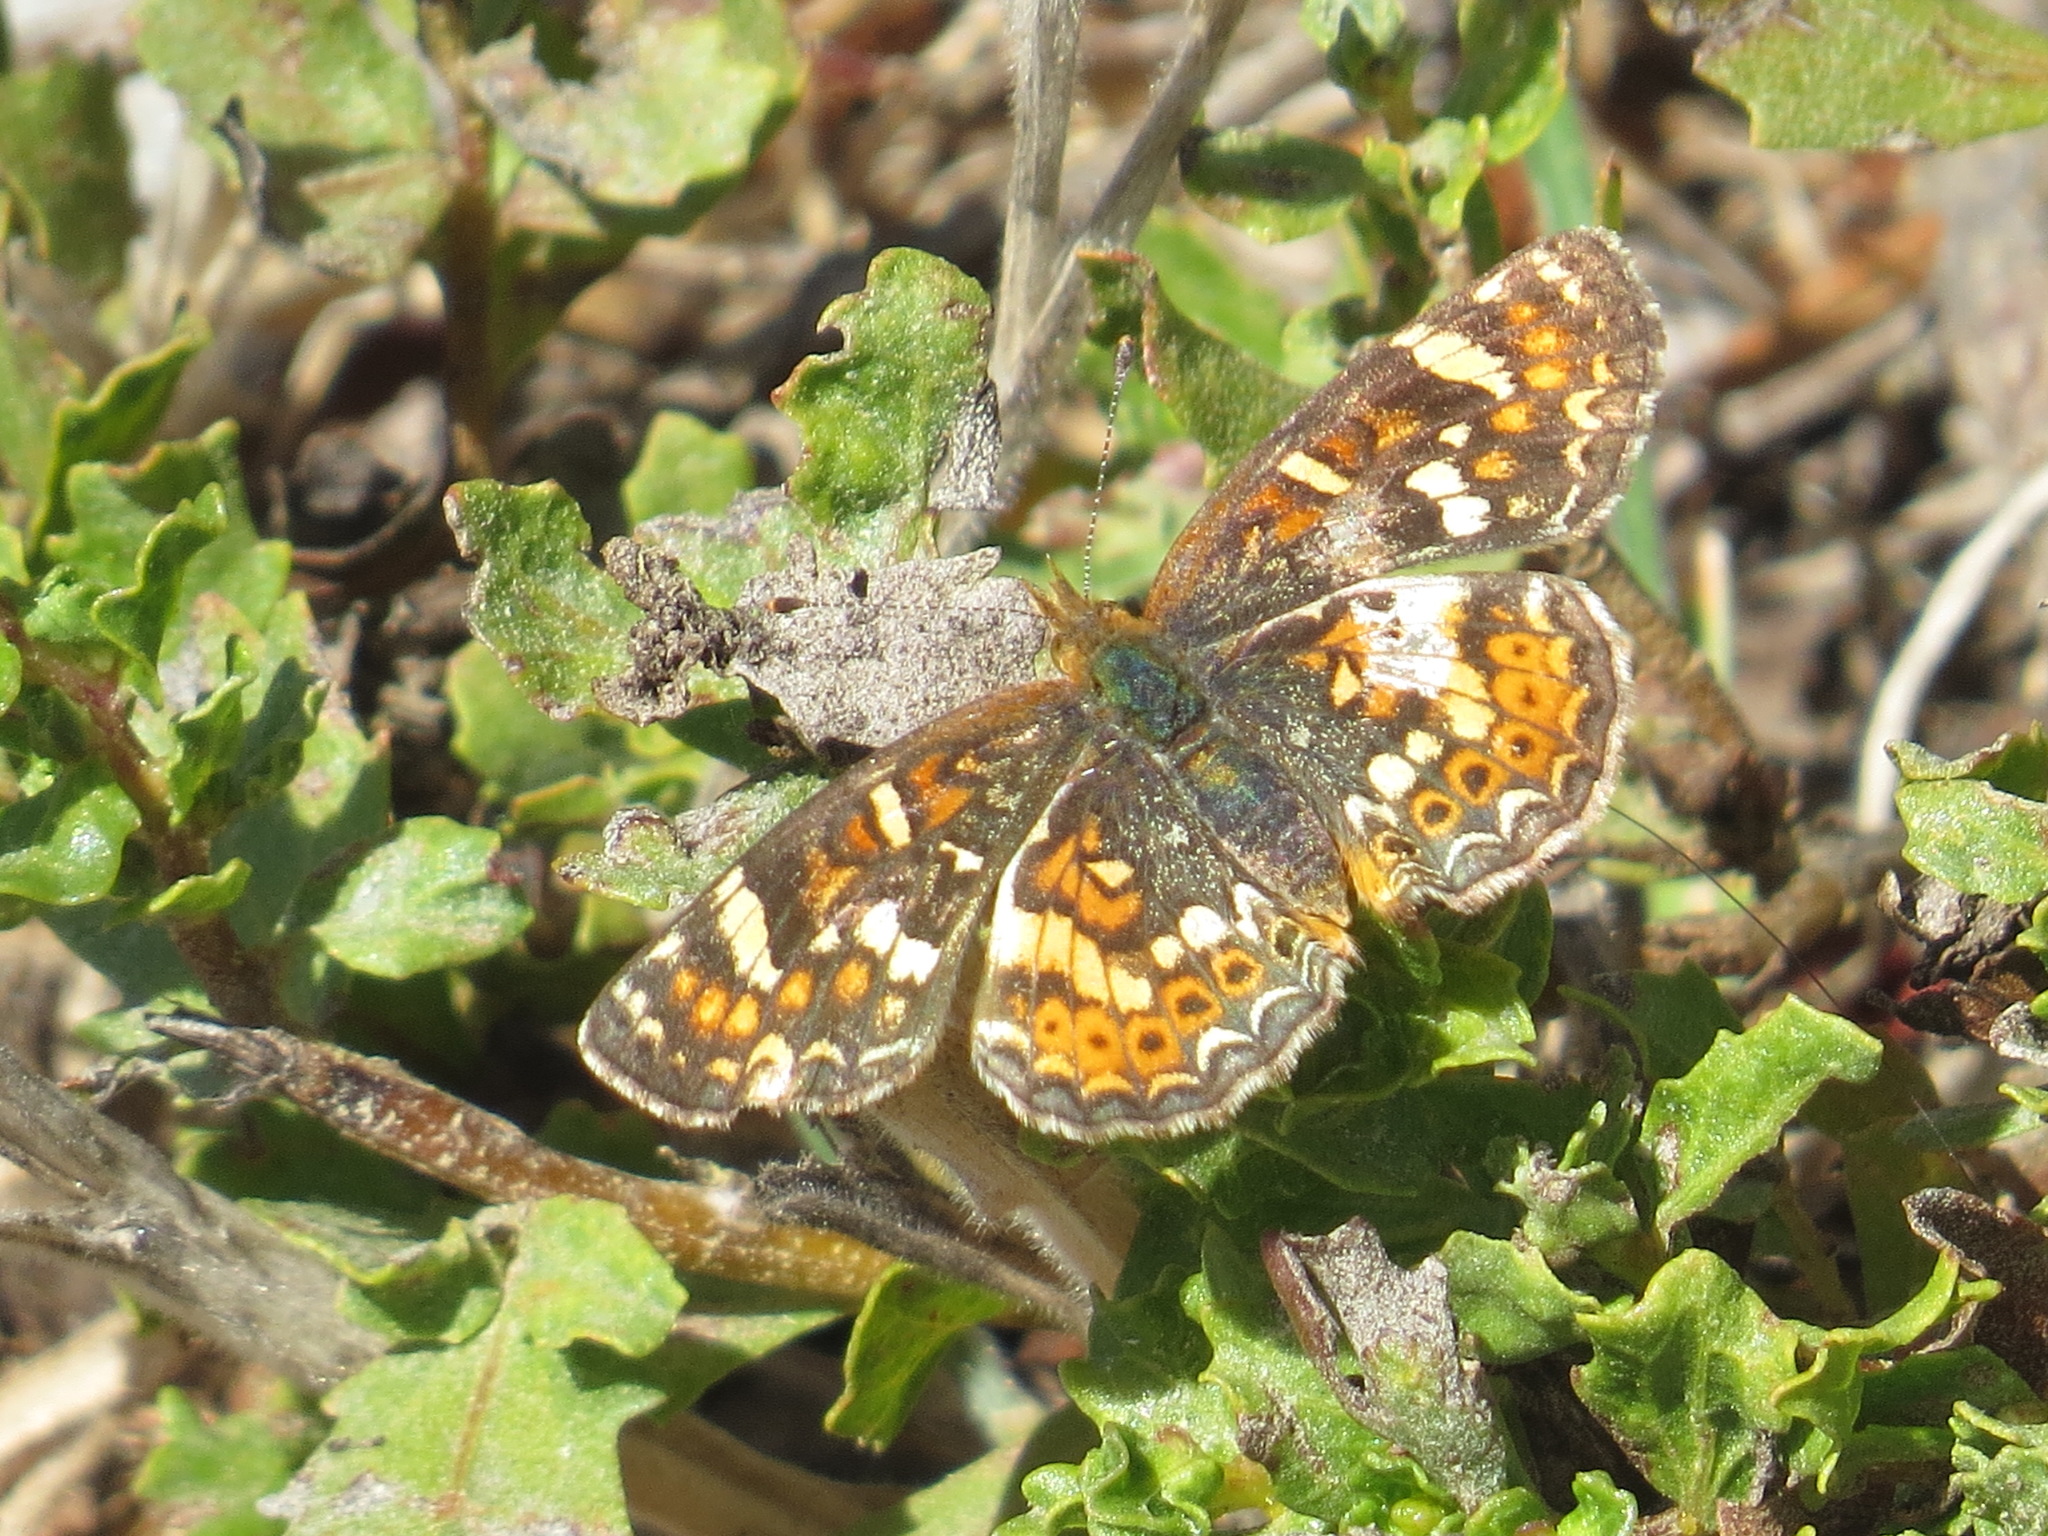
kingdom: Animalia
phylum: Arthropoda
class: Insecta
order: Lepidoptera
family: Nymphalidae
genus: Phyciodes
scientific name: Phyciodes tharos
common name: Pearl crescent
